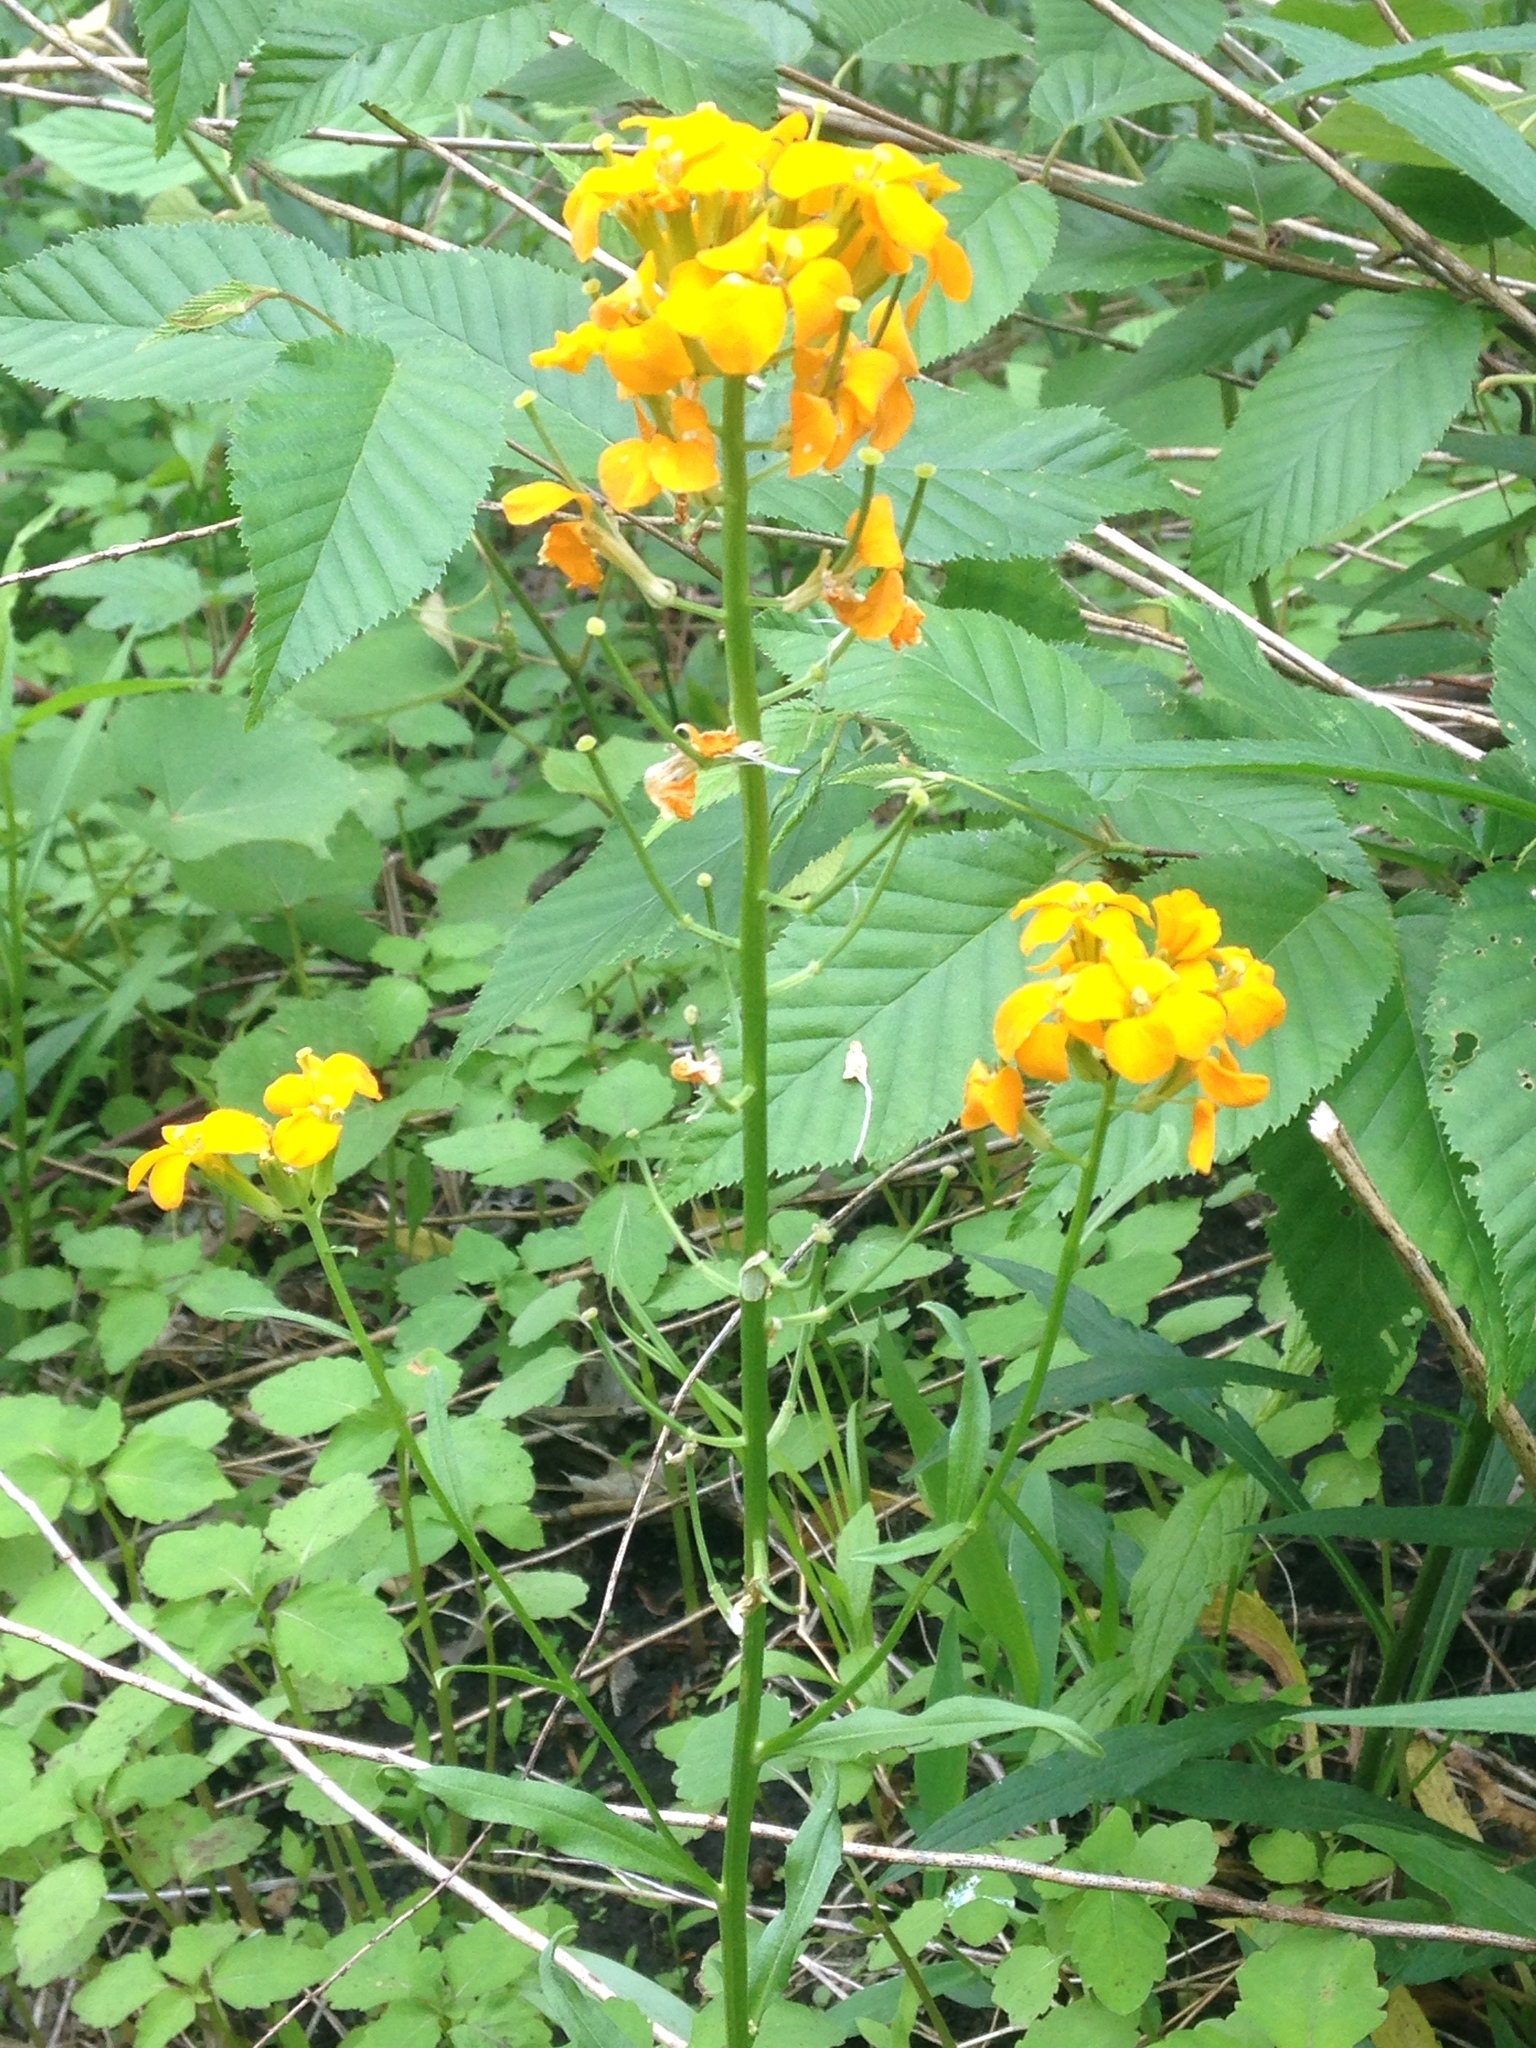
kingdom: Plantae
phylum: Tracheophyta
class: Magnoliopsida
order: Brassicales
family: Brassicaceae
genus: Erysimum
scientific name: Erysimum cheiri
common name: Wallflower
